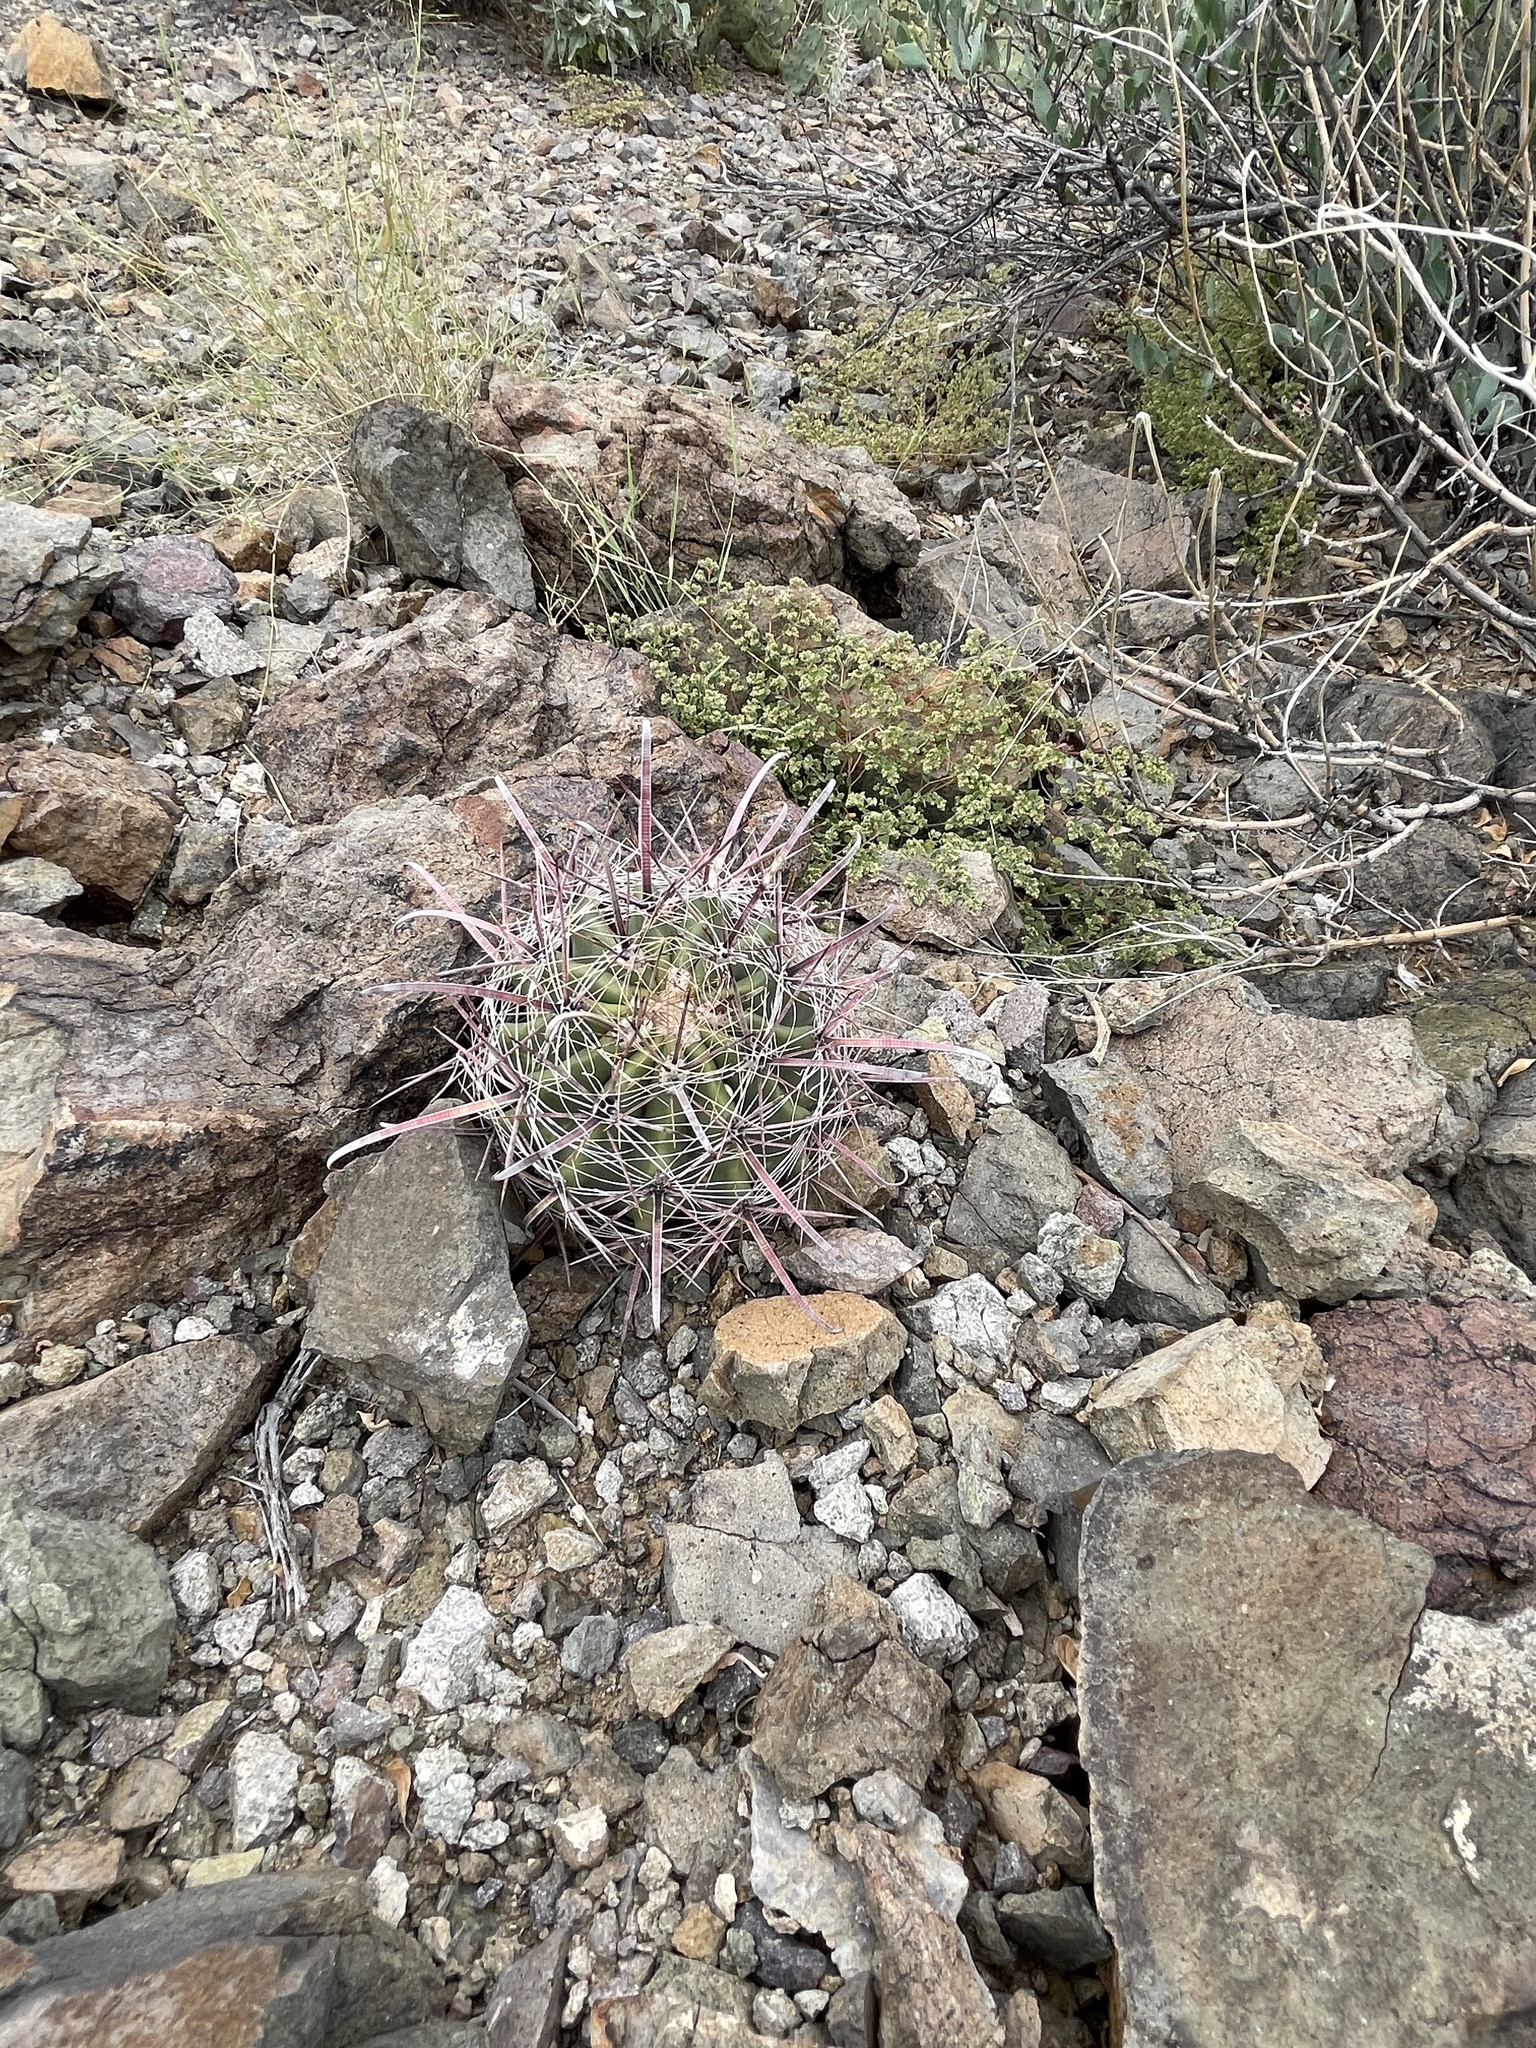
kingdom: Plantae
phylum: Tracheophyta
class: Magnoliopsida
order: Caryophyllales
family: Cactaceae
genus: Ferocactus
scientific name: Ferocactus wislizeni
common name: Candy barrel cactus
